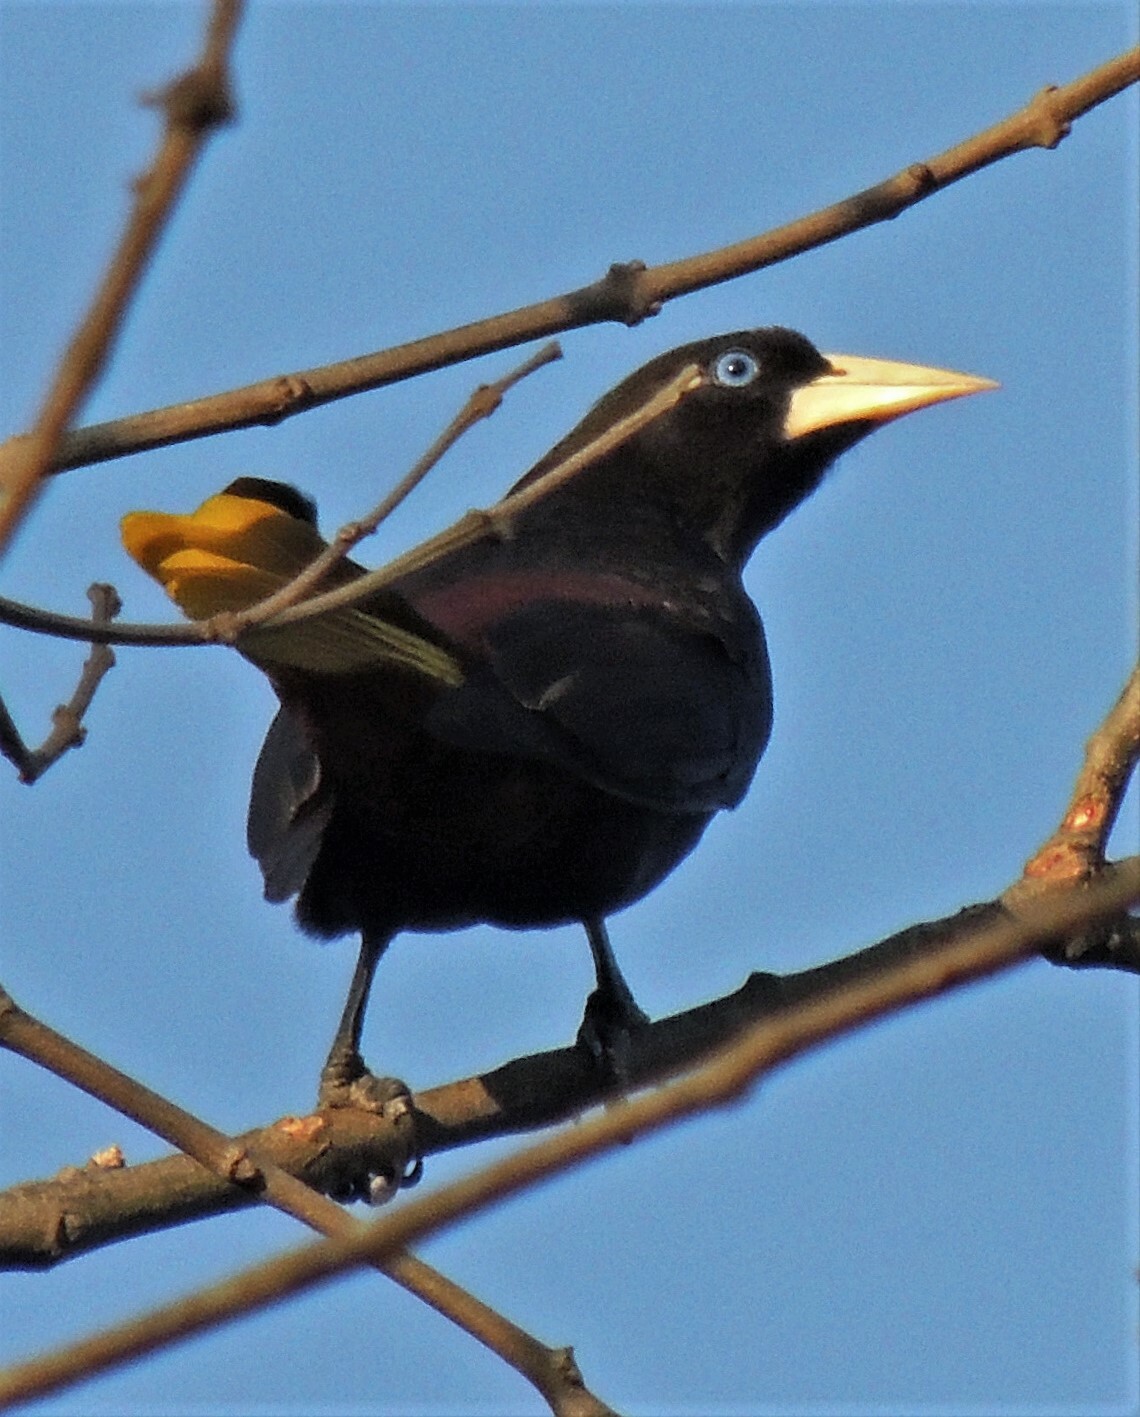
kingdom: Animalia
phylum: Chordata
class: Aves
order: Passeriformes
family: Icteridae
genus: Psarocolius
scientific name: Psarocolius decumanus
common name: Crested oropendola
